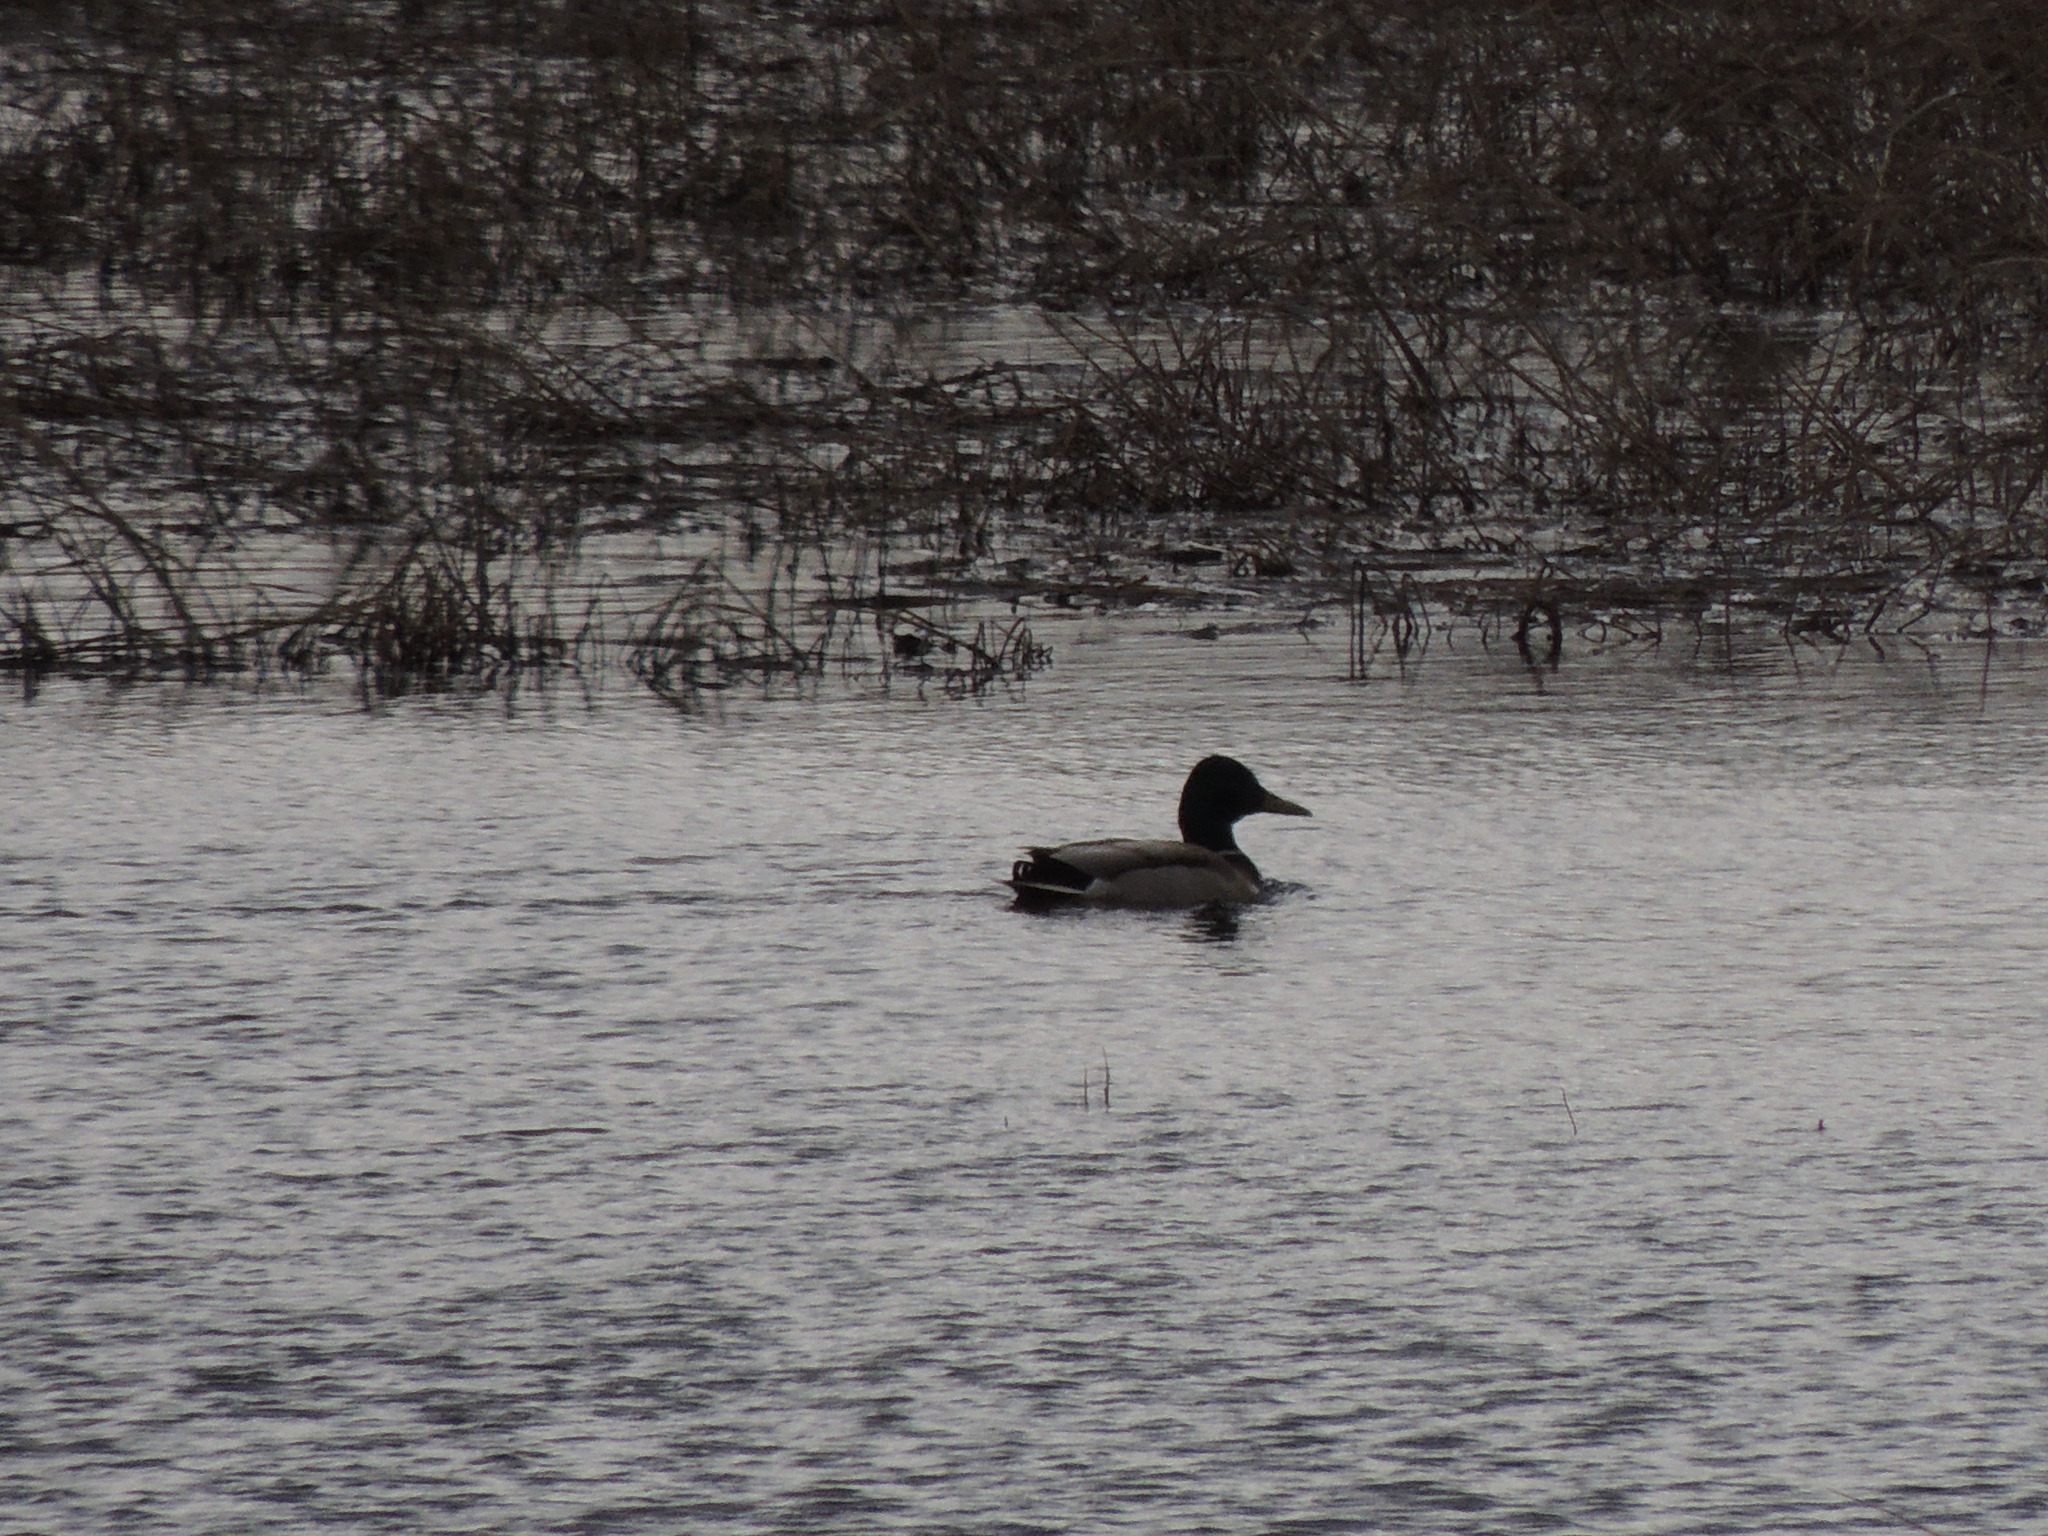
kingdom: Animalia
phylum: Chordata
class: Aves
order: Anseriformes
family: Anatidae
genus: Anas
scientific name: Anas platyrhynchos
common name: Mallard
